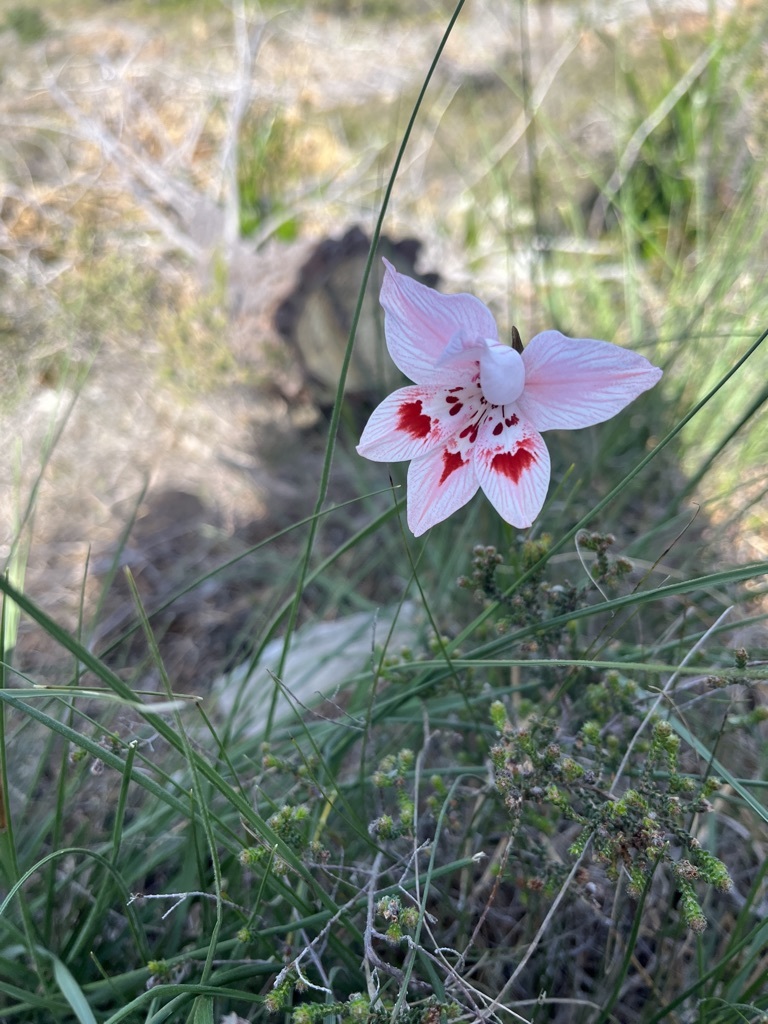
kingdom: Plantae
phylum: Tracheophyta
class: Liliopsida
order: Asparagales
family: Iridaceae
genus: Gladiolus
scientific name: Gladiolus debilis
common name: Painted-lady
